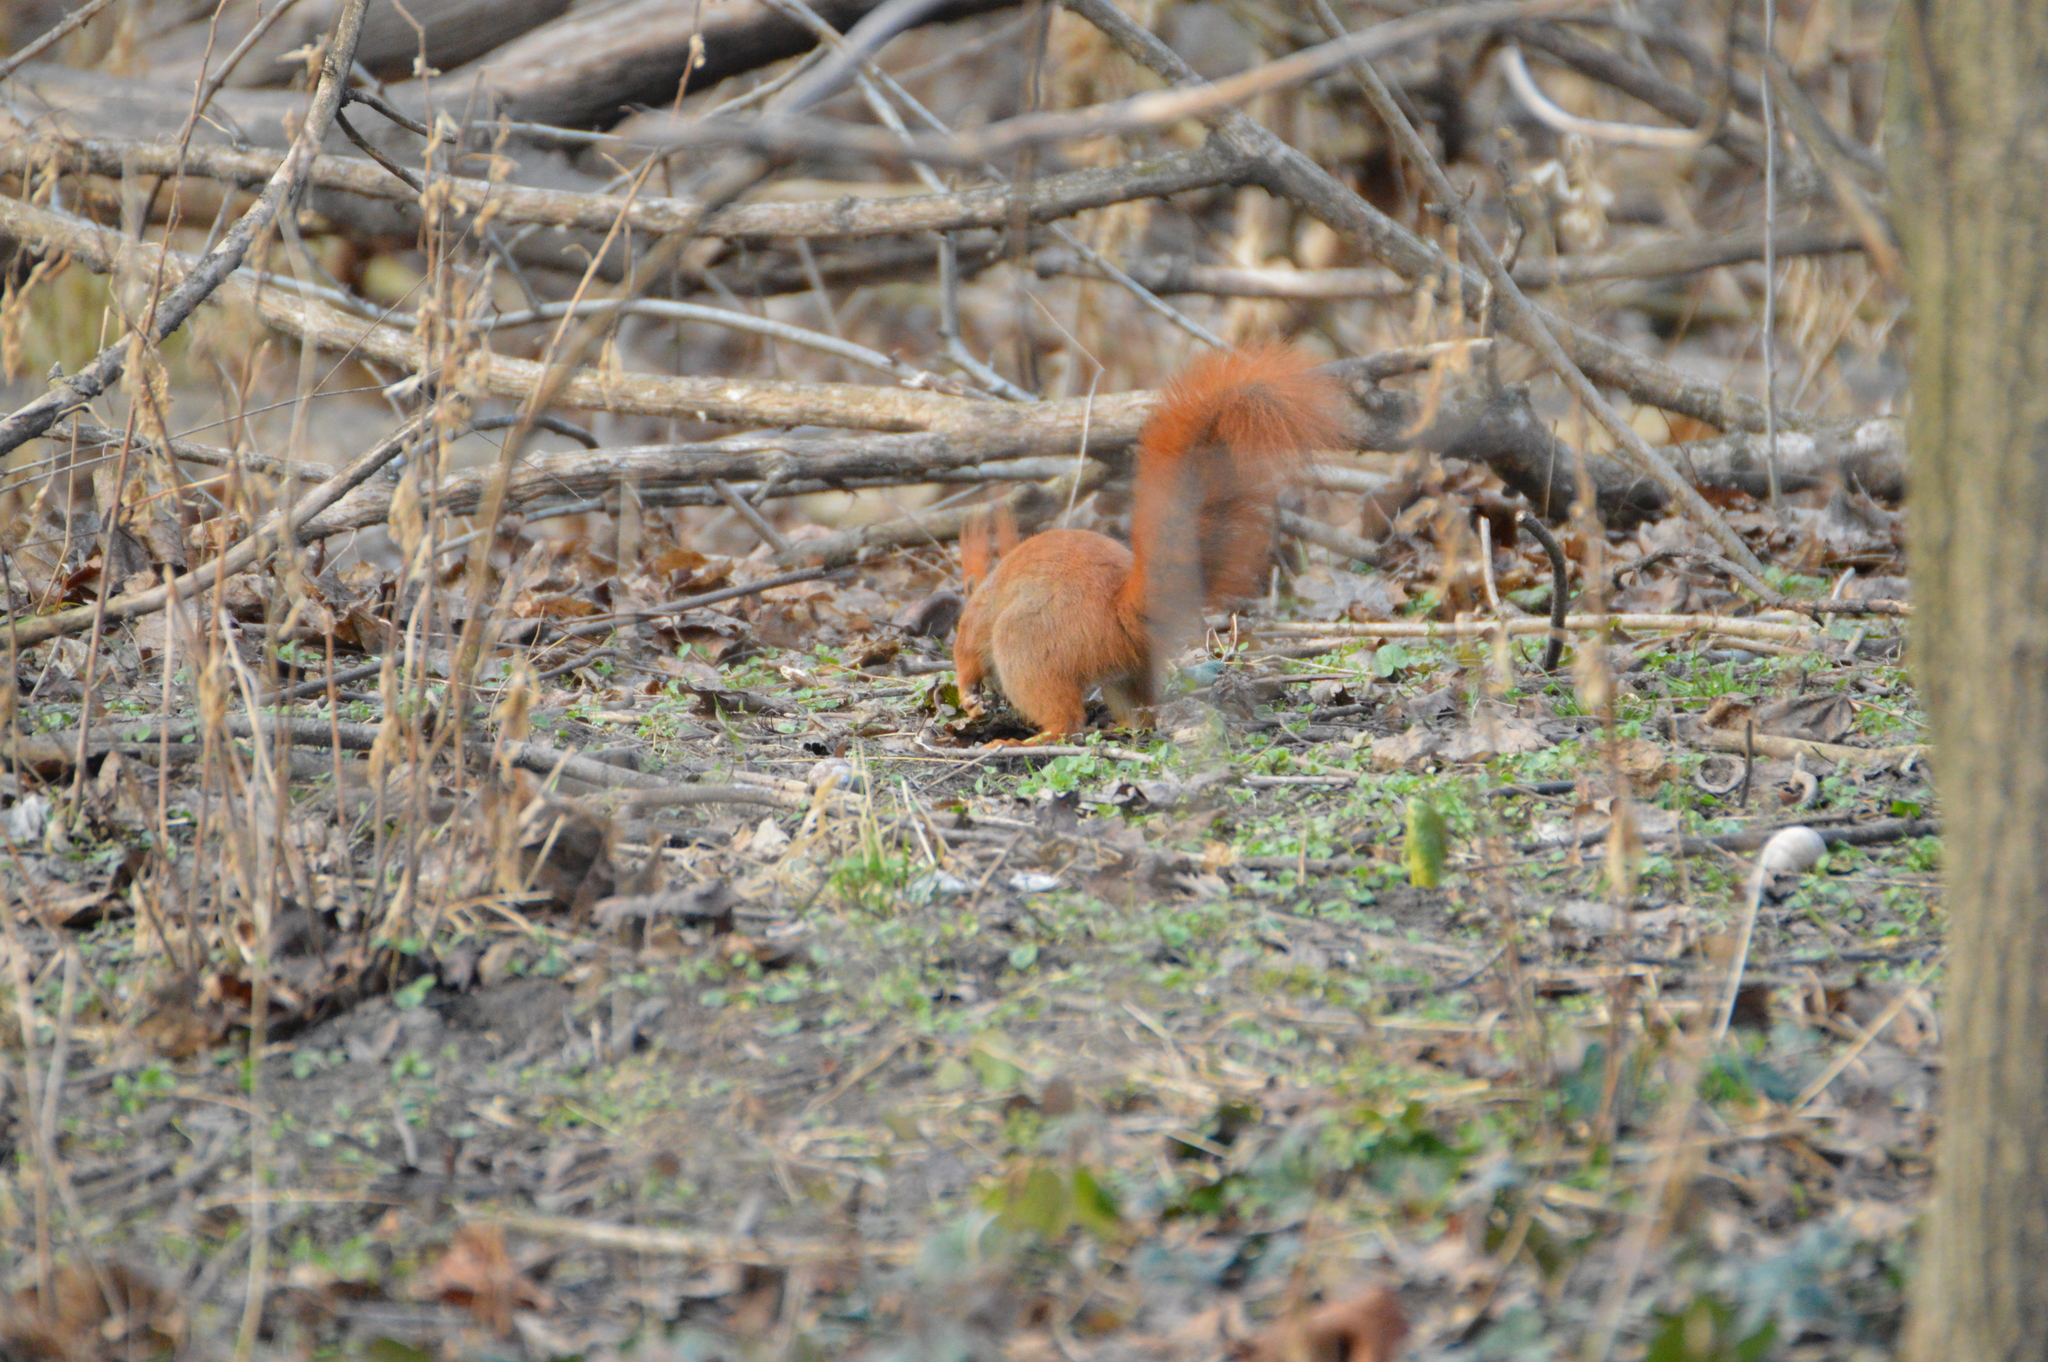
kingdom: Animalia
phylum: Chordata
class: Mammalia
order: Rodentia
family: Sciuridae
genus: Sciurus
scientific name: Sciurus vulgaris
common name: Eurasian red squirrel
